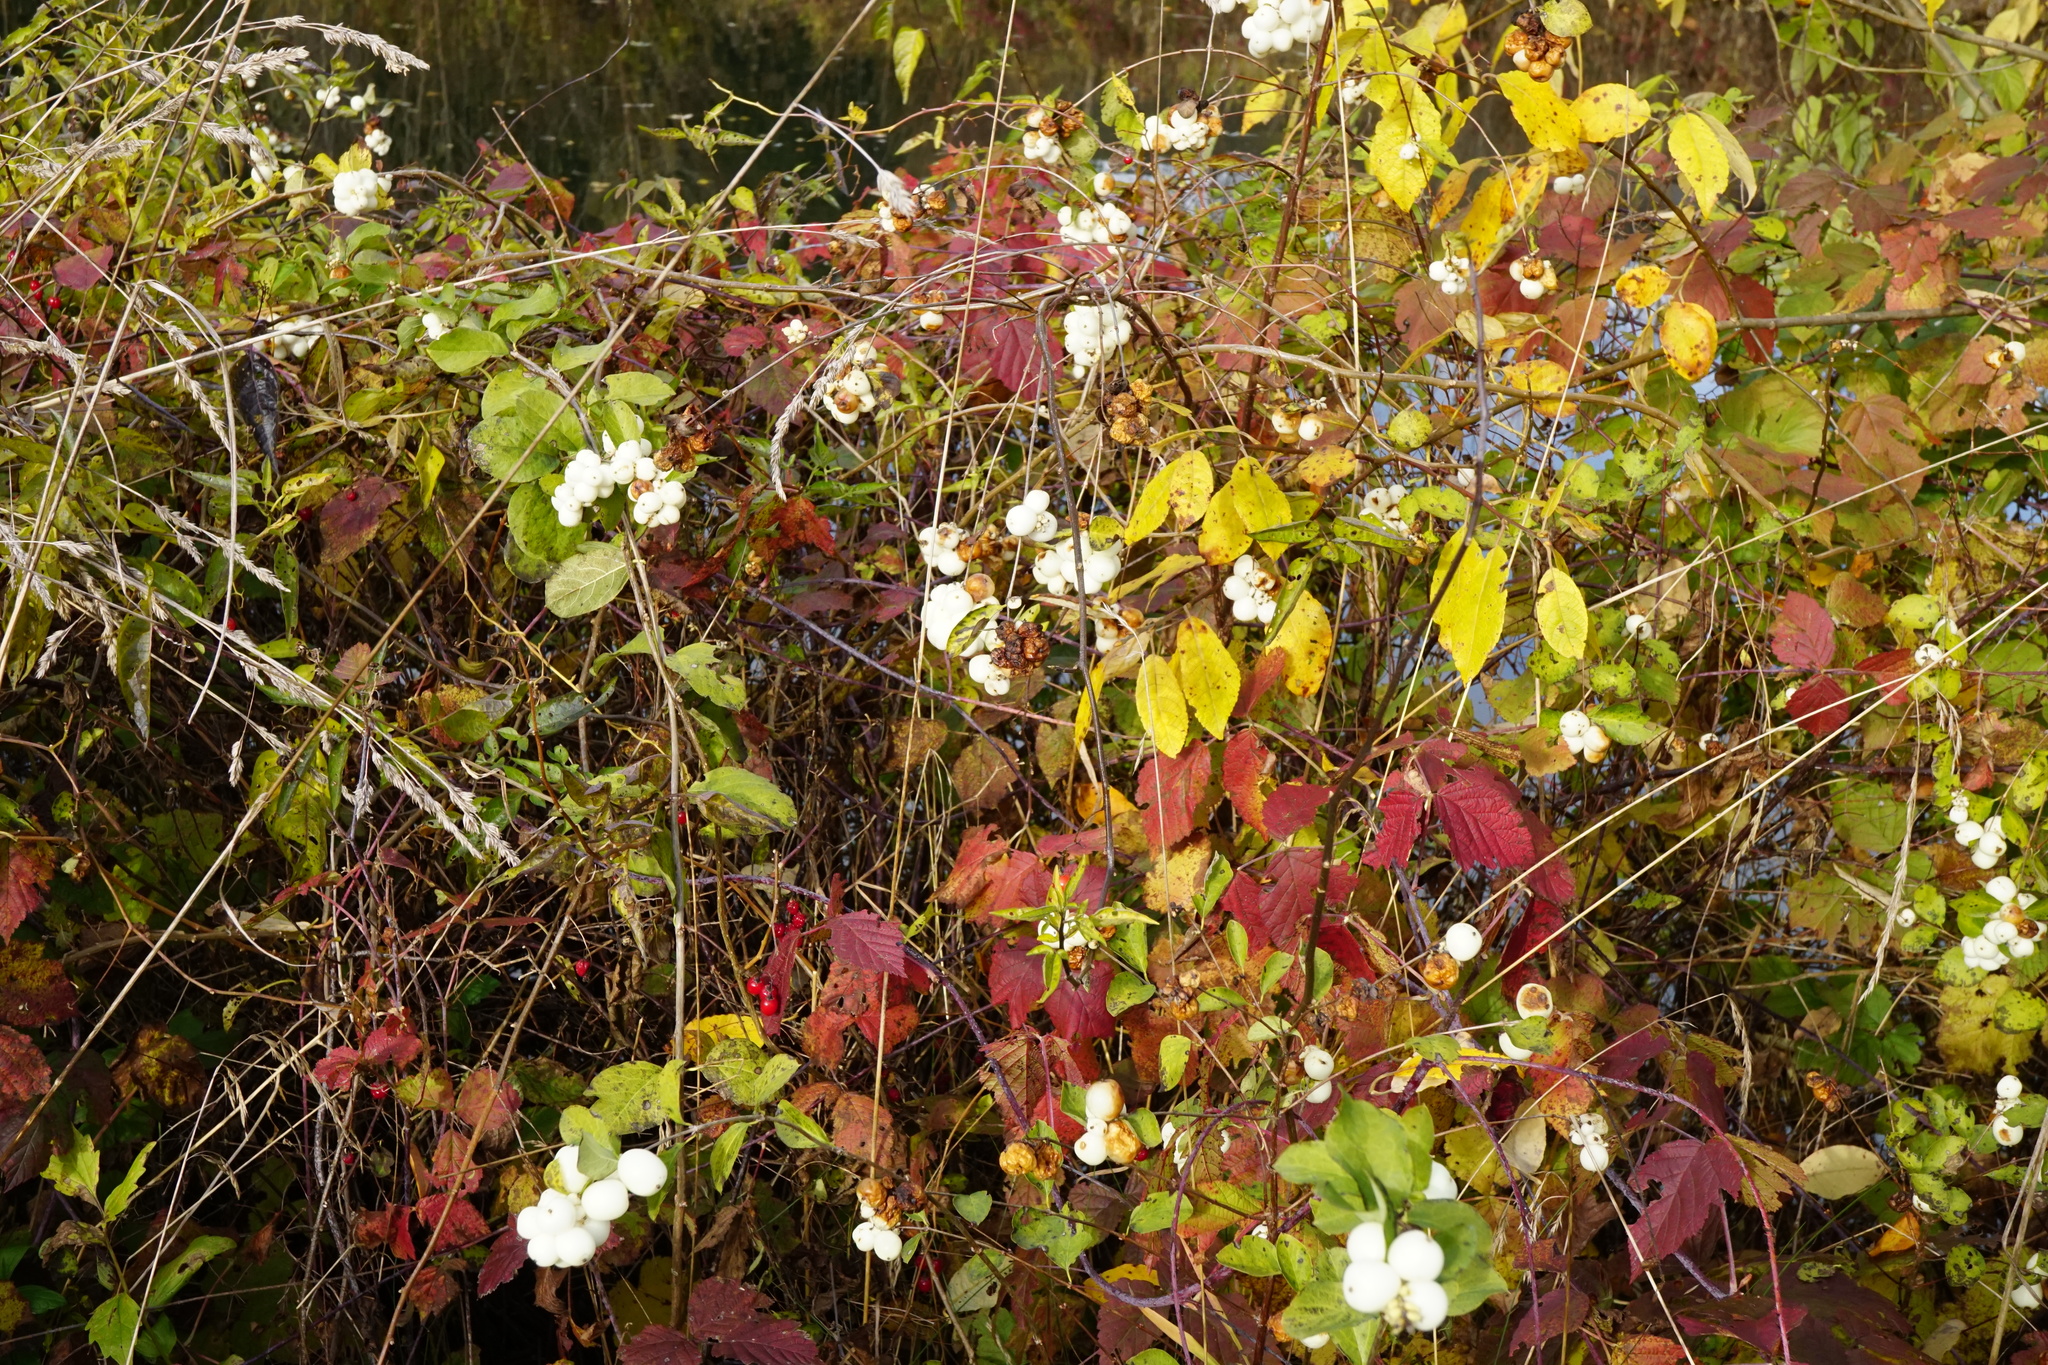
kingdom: Plantae
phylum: Tracheophyta
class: Magnoliopsida
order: Dipsacales
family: Caprifoliaceae
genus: Symphoricarpos
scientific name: Symphoricarpos albus
